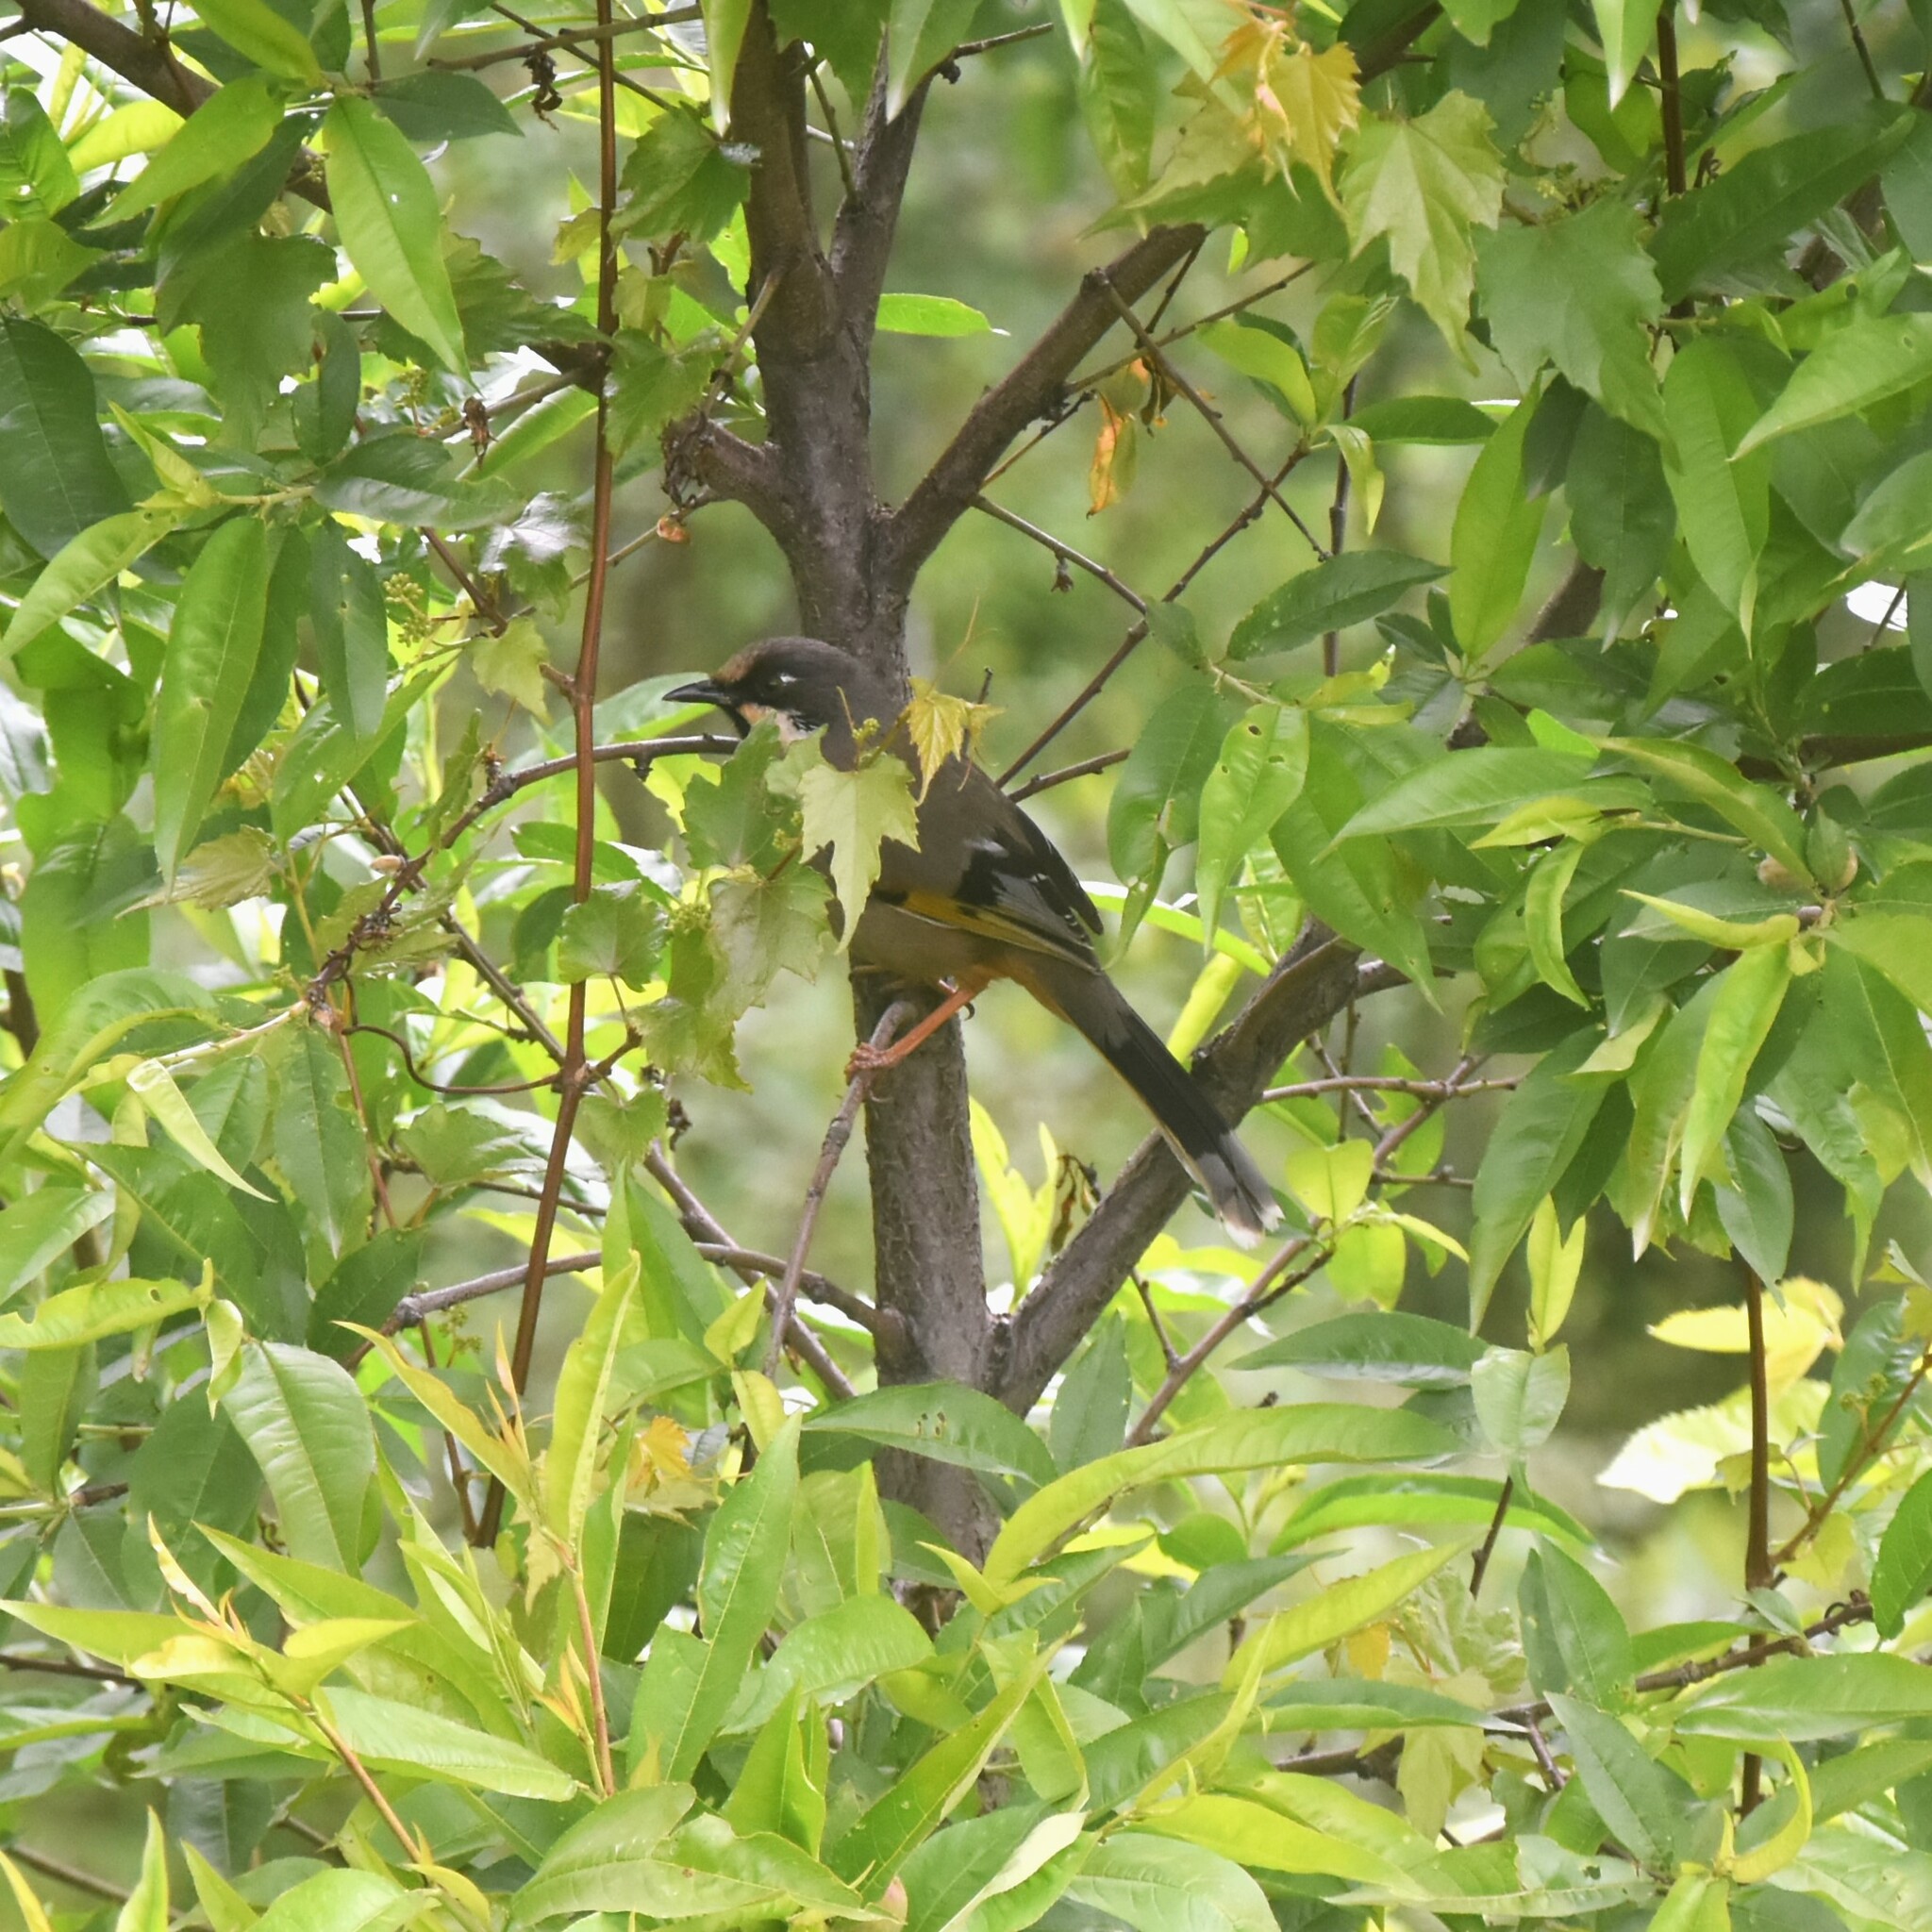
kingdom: Animalia
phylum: Chordata
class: Aves
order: Passeriformes
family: Leiothrichidae
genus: Trochalopteron
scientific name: Trochalopteron variegatum
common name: Variegated laughingthrush
